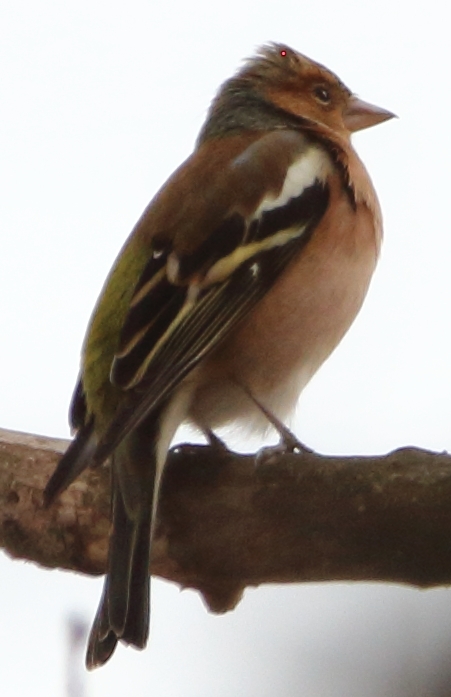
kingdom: Animalia
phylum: Chordata
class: Aves
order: Passeriformes
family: Fringillidae
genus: Fringilla
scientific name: Fringilla coelebs
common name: Common chaffinch
